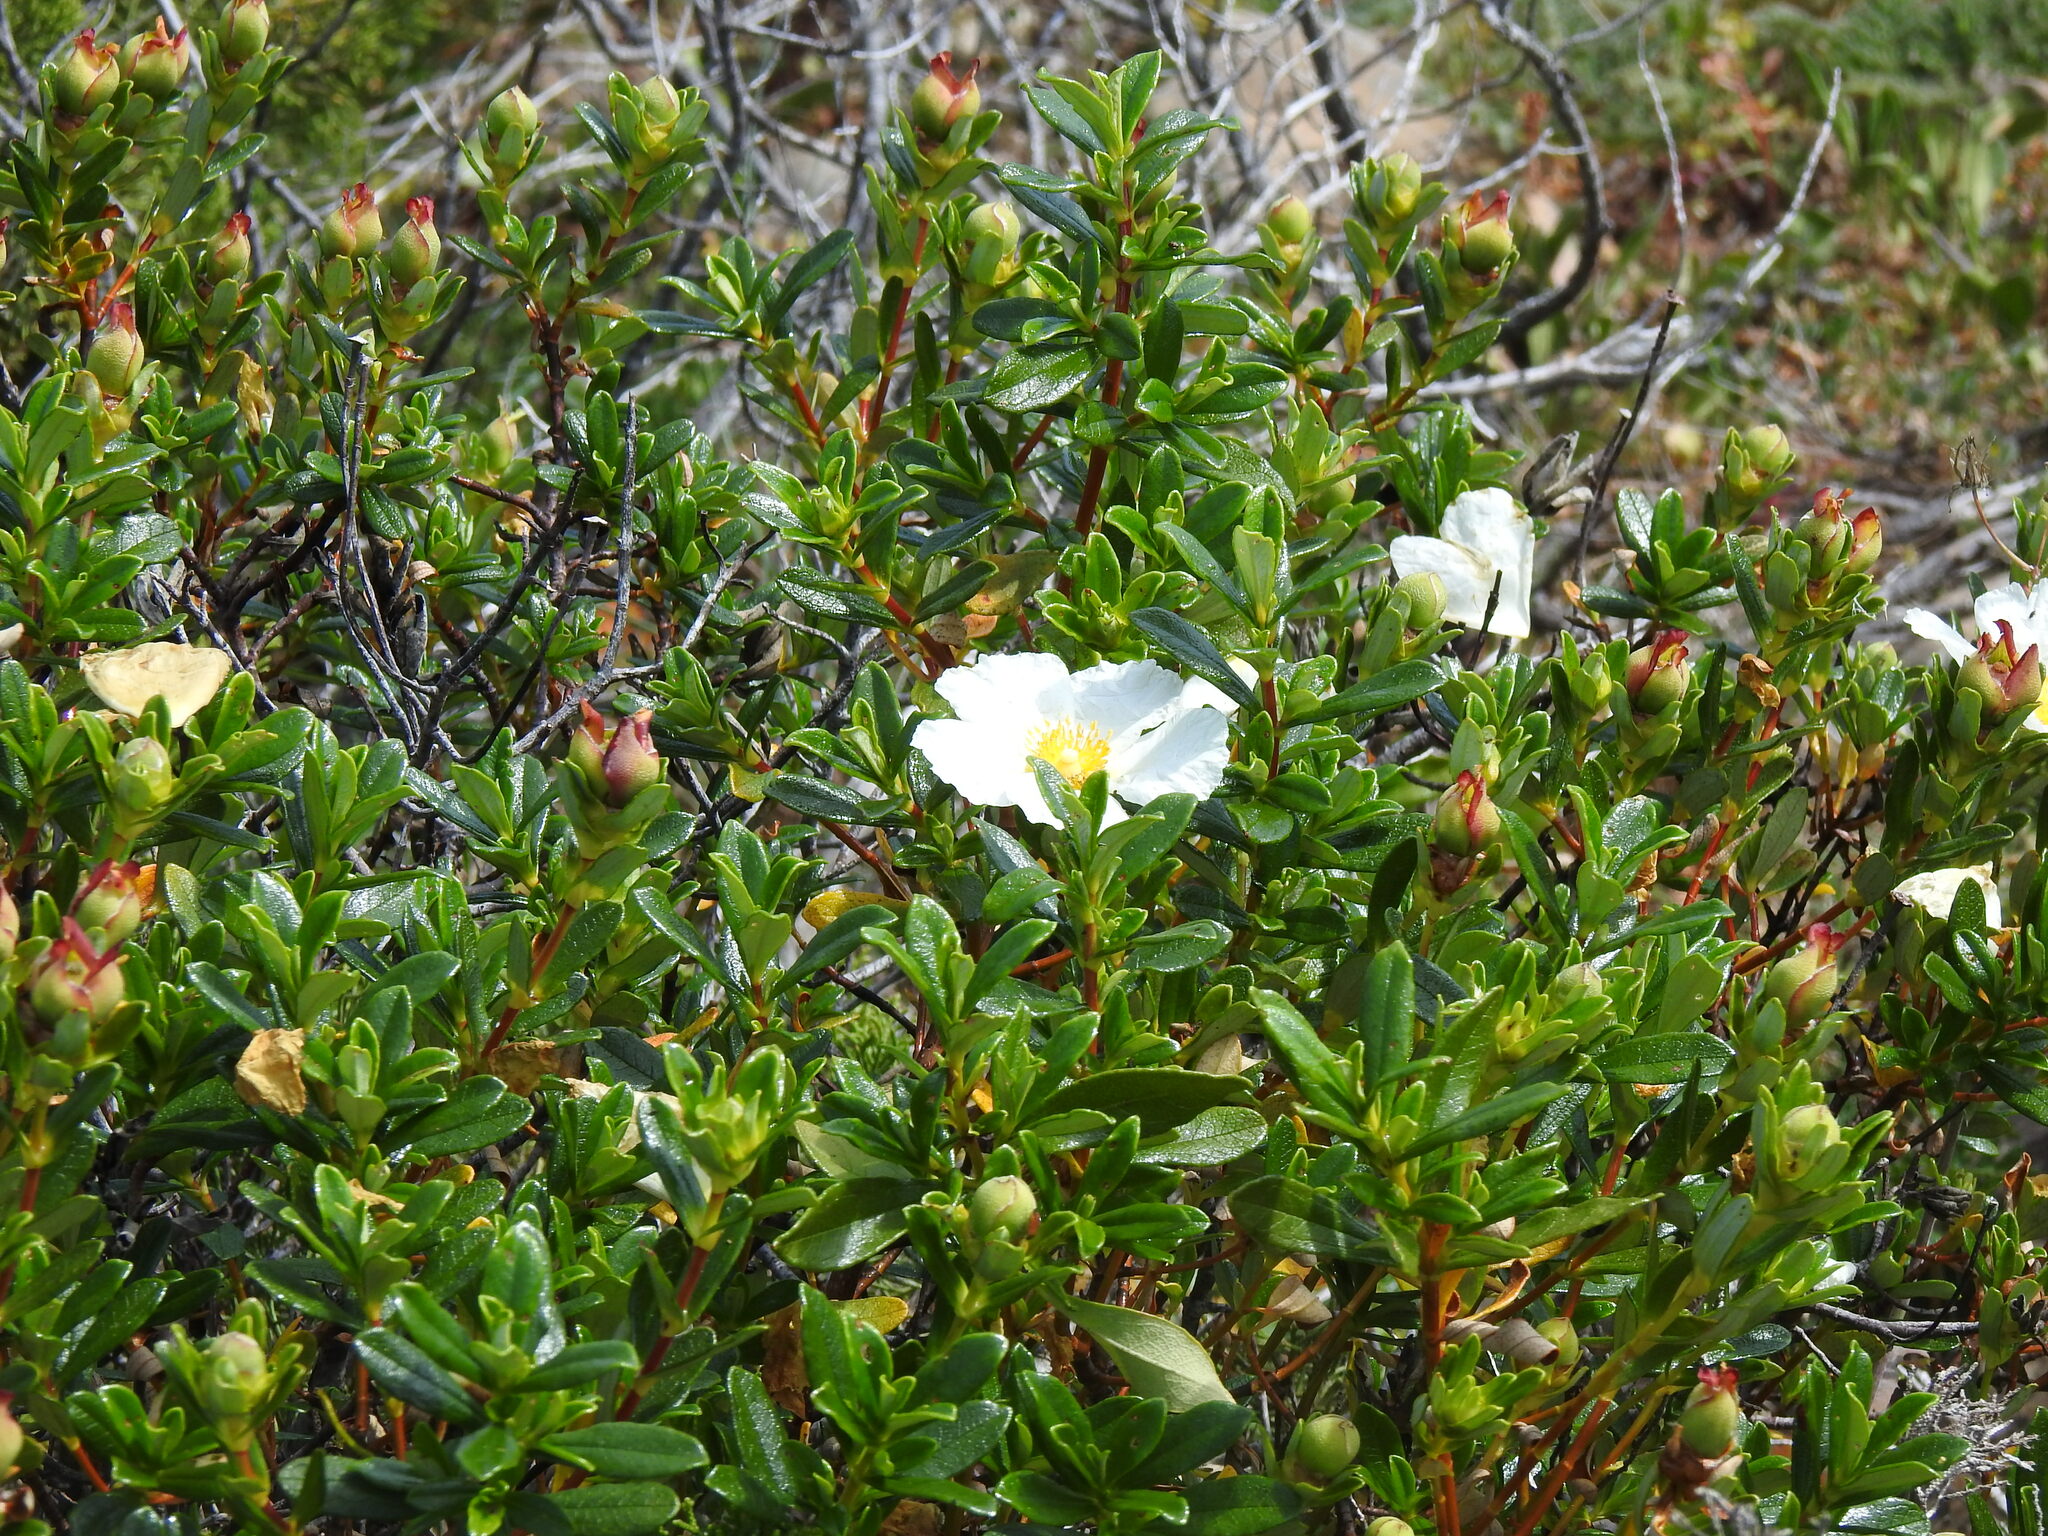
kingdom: Plantae
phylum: Tracheophyta
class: Magnoliopsida
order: Malvales
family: Cistaceae
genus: Cistus
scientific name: Cistus ladanifer
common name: Common gum cistus
